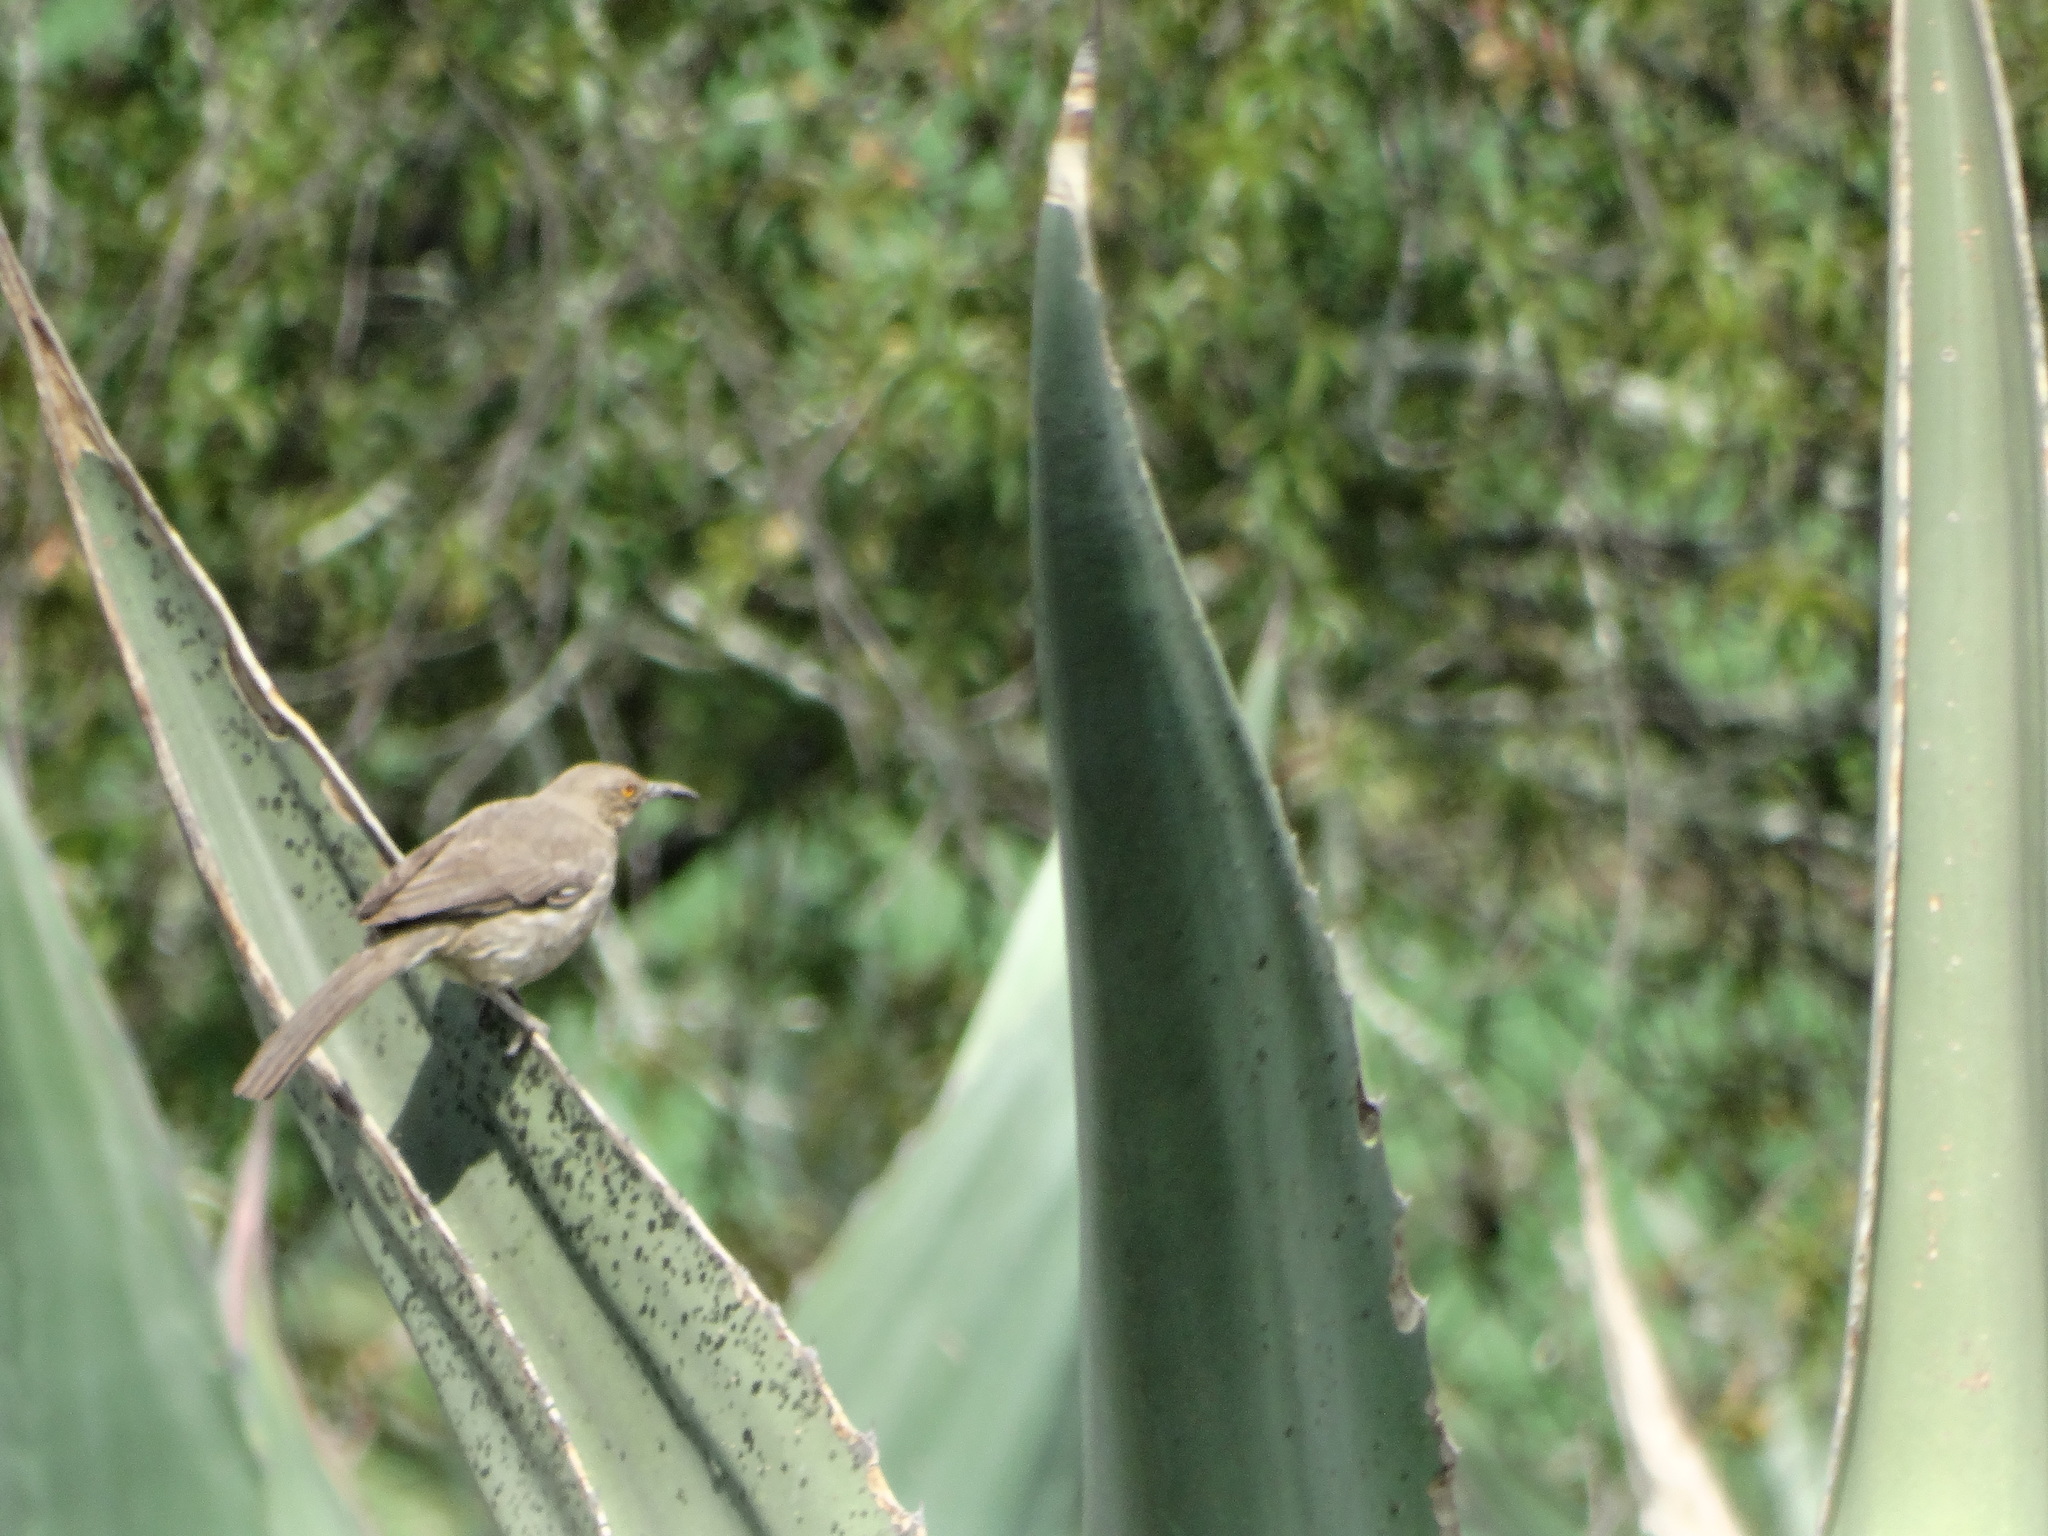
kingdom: Animalia
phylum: Chordata
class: Aves
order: Passeriformes
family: Mimidae
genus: Toxostoma
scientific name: Toxostoma curvirostre
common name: Curve-billed thrasher
